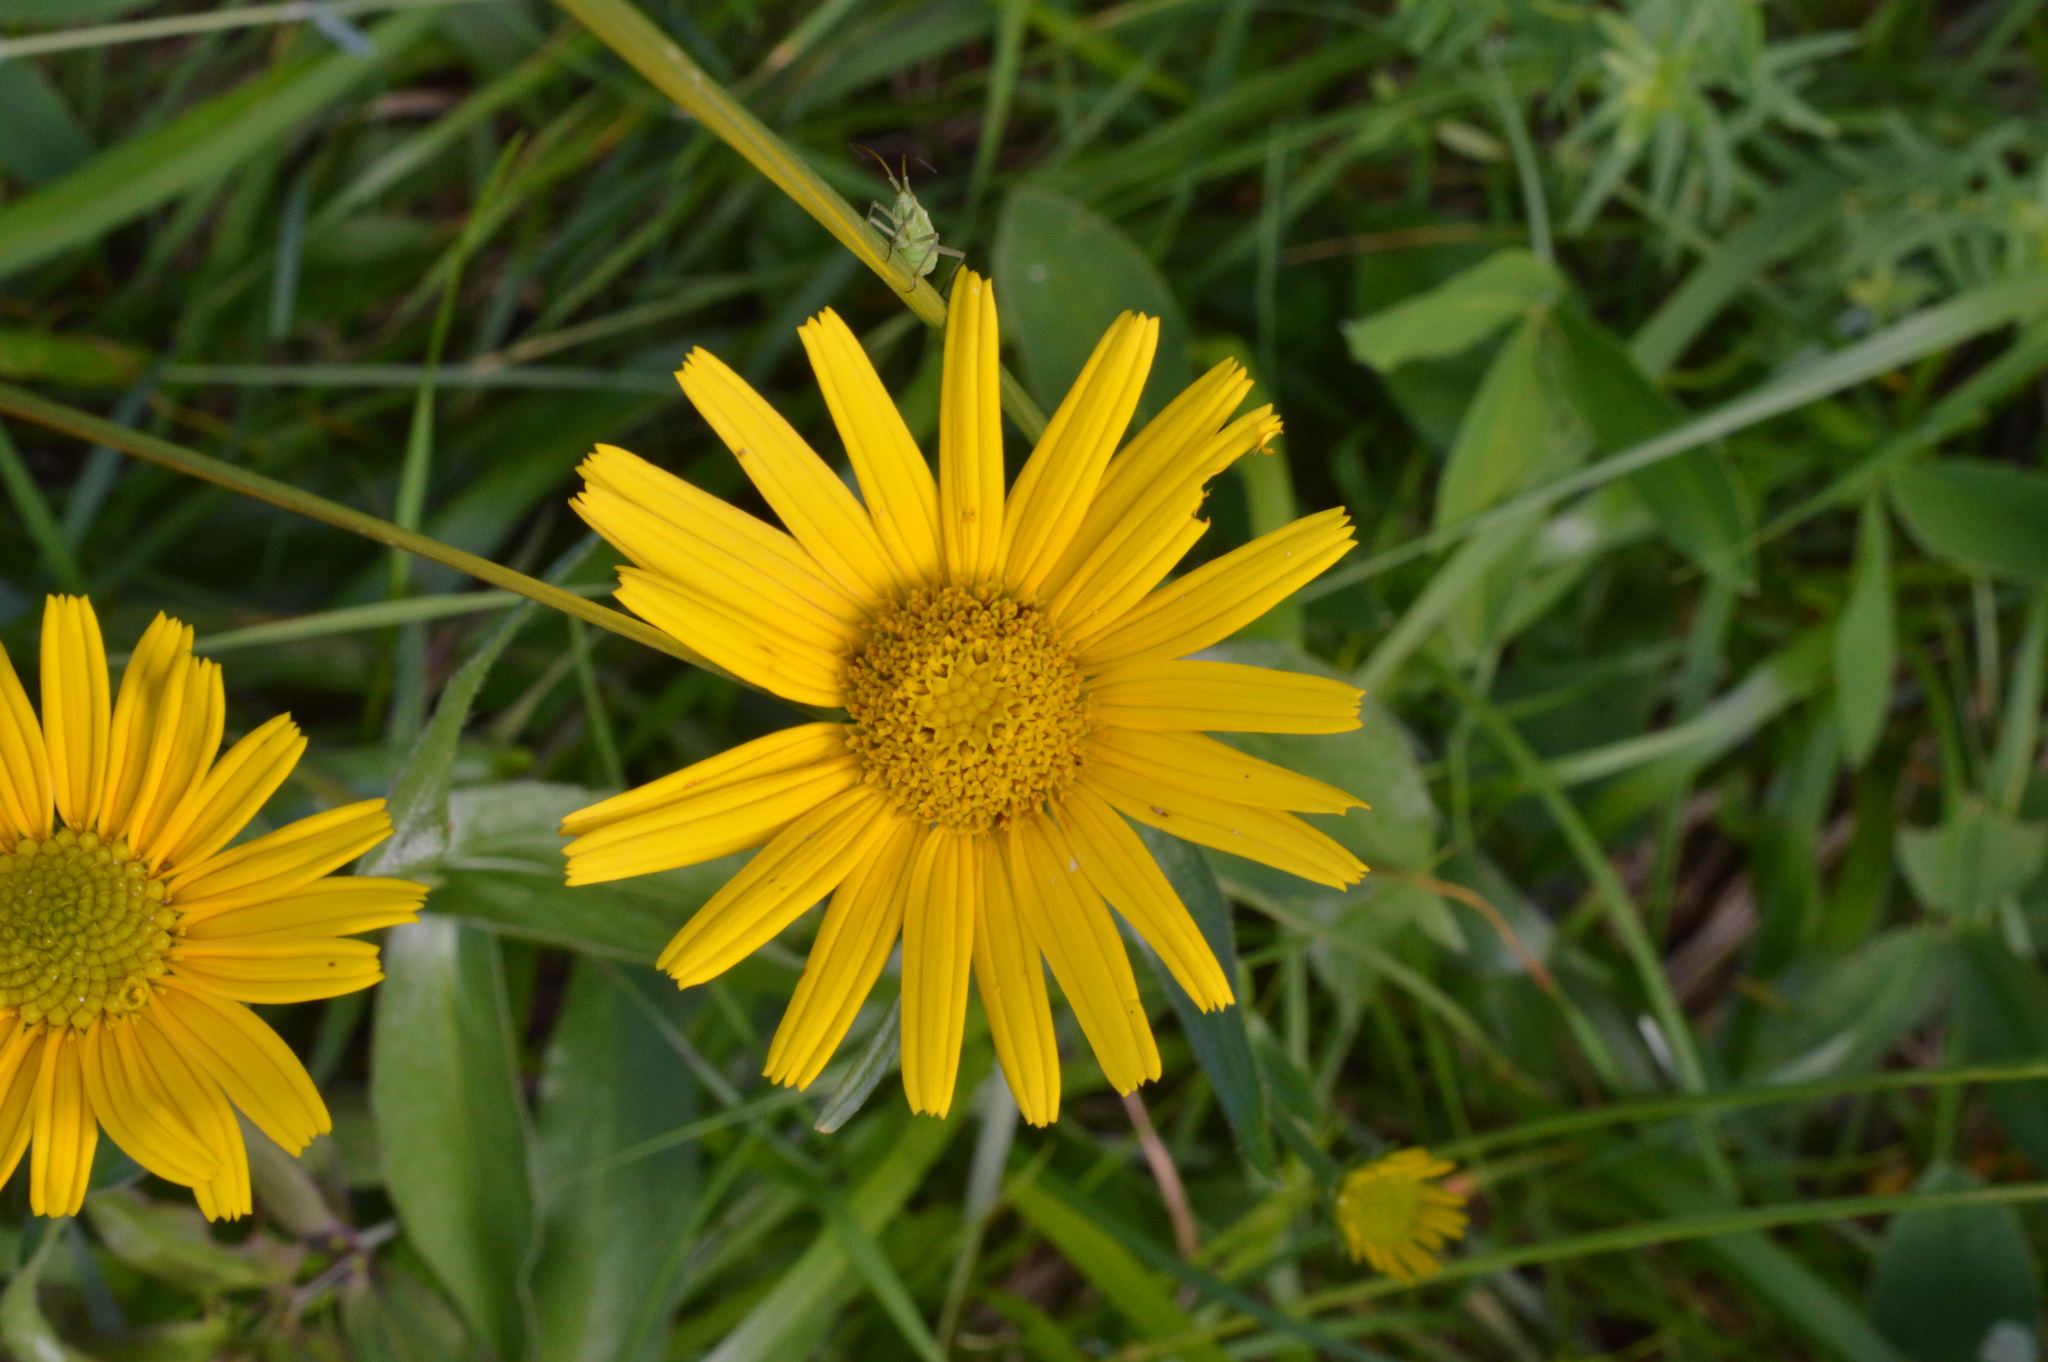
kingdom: Plantae
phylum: Tracheophyta
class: Magnoliopsida
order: Asterales
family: Asteraceae
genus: Buphthalmum
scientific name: Buphthalmum salicifolium
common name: Willow-leaved yellow-oxeye
